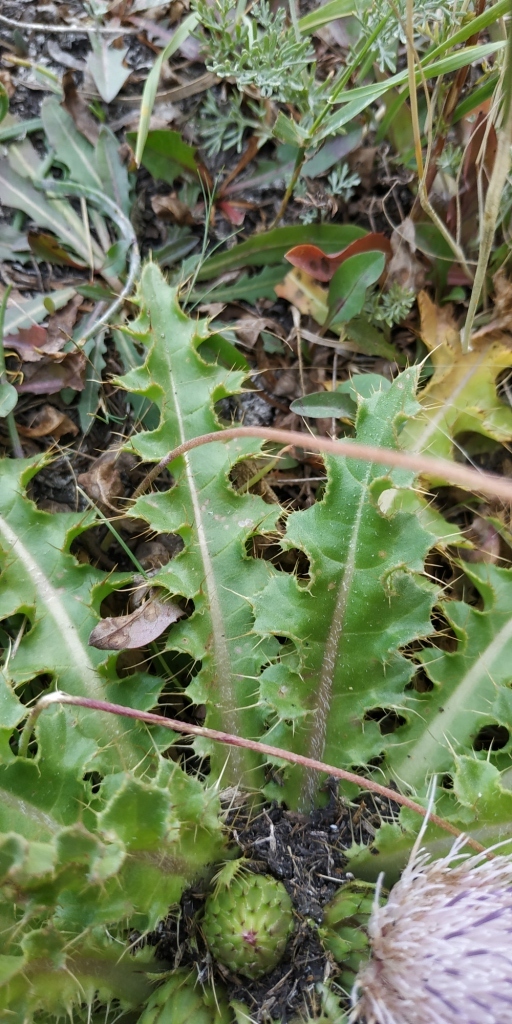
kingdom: Plantae
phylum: Tracheophyta
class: Magnoliopsida
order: Asterales
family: Asteraceae
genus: Cirsium
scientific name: Cirsium esculentum
